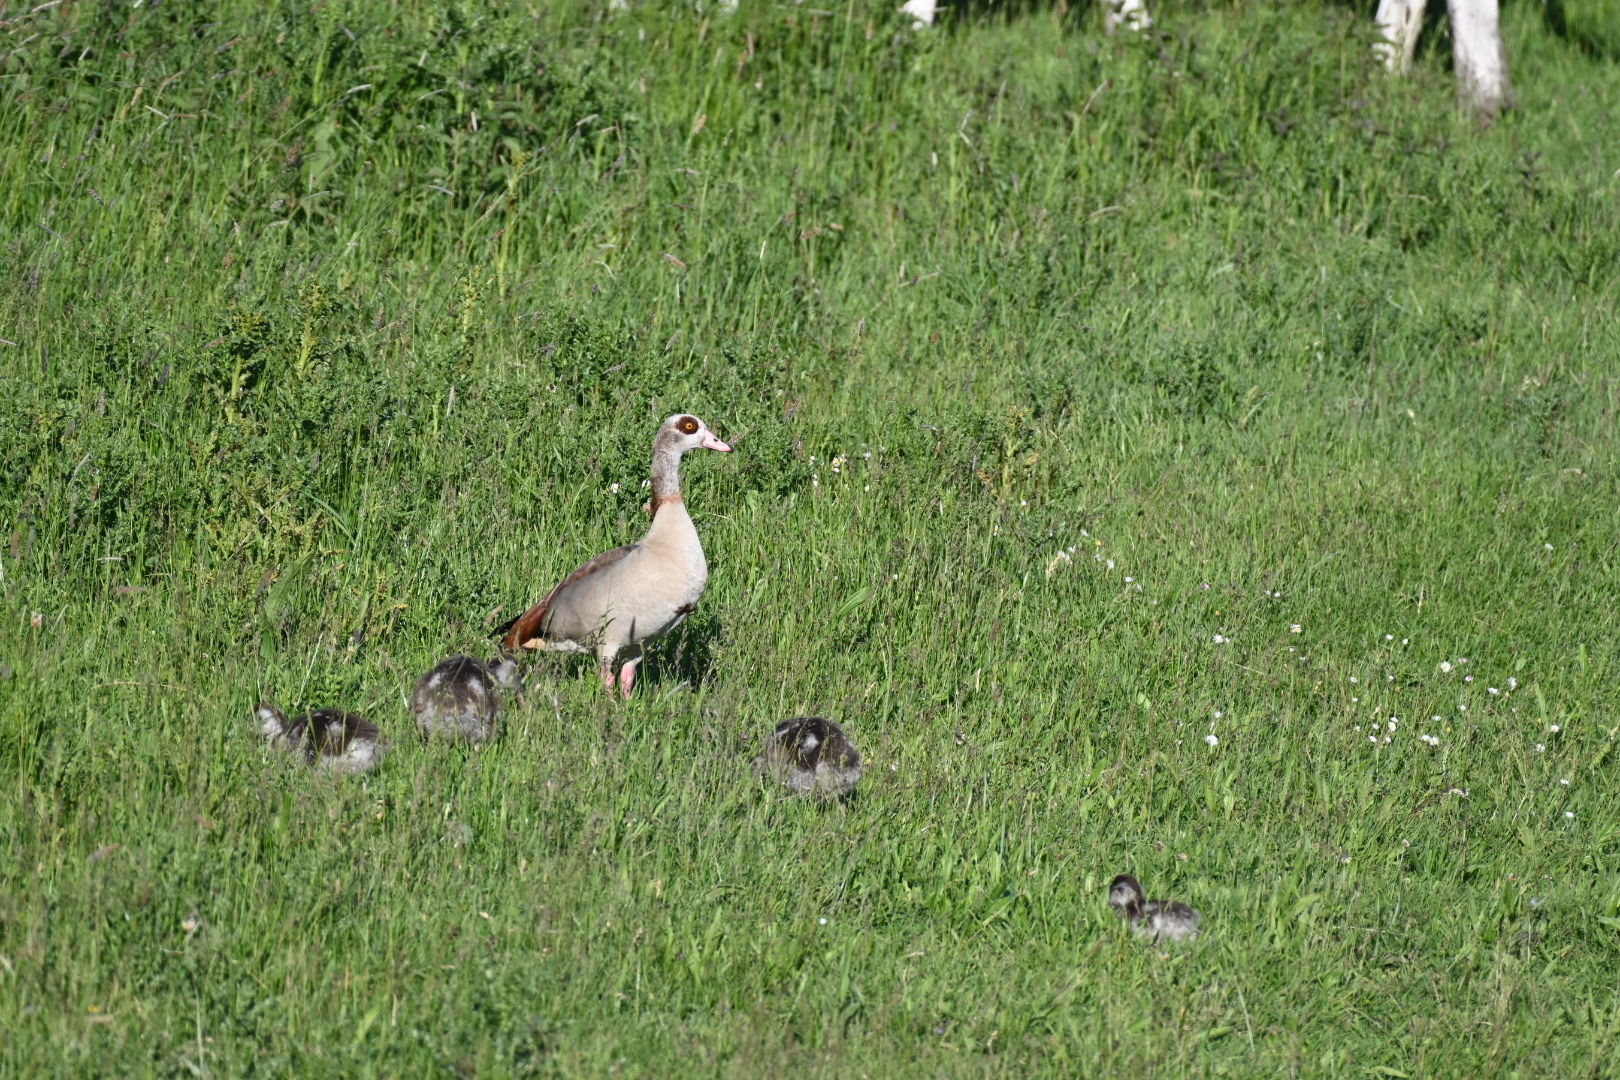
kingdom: Animalia
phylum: Chordata
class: Aves
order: Anseriformes
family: Anatidae
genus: Alopochen
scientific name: Alopochen aegyptiaca
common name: Egyptian goose
